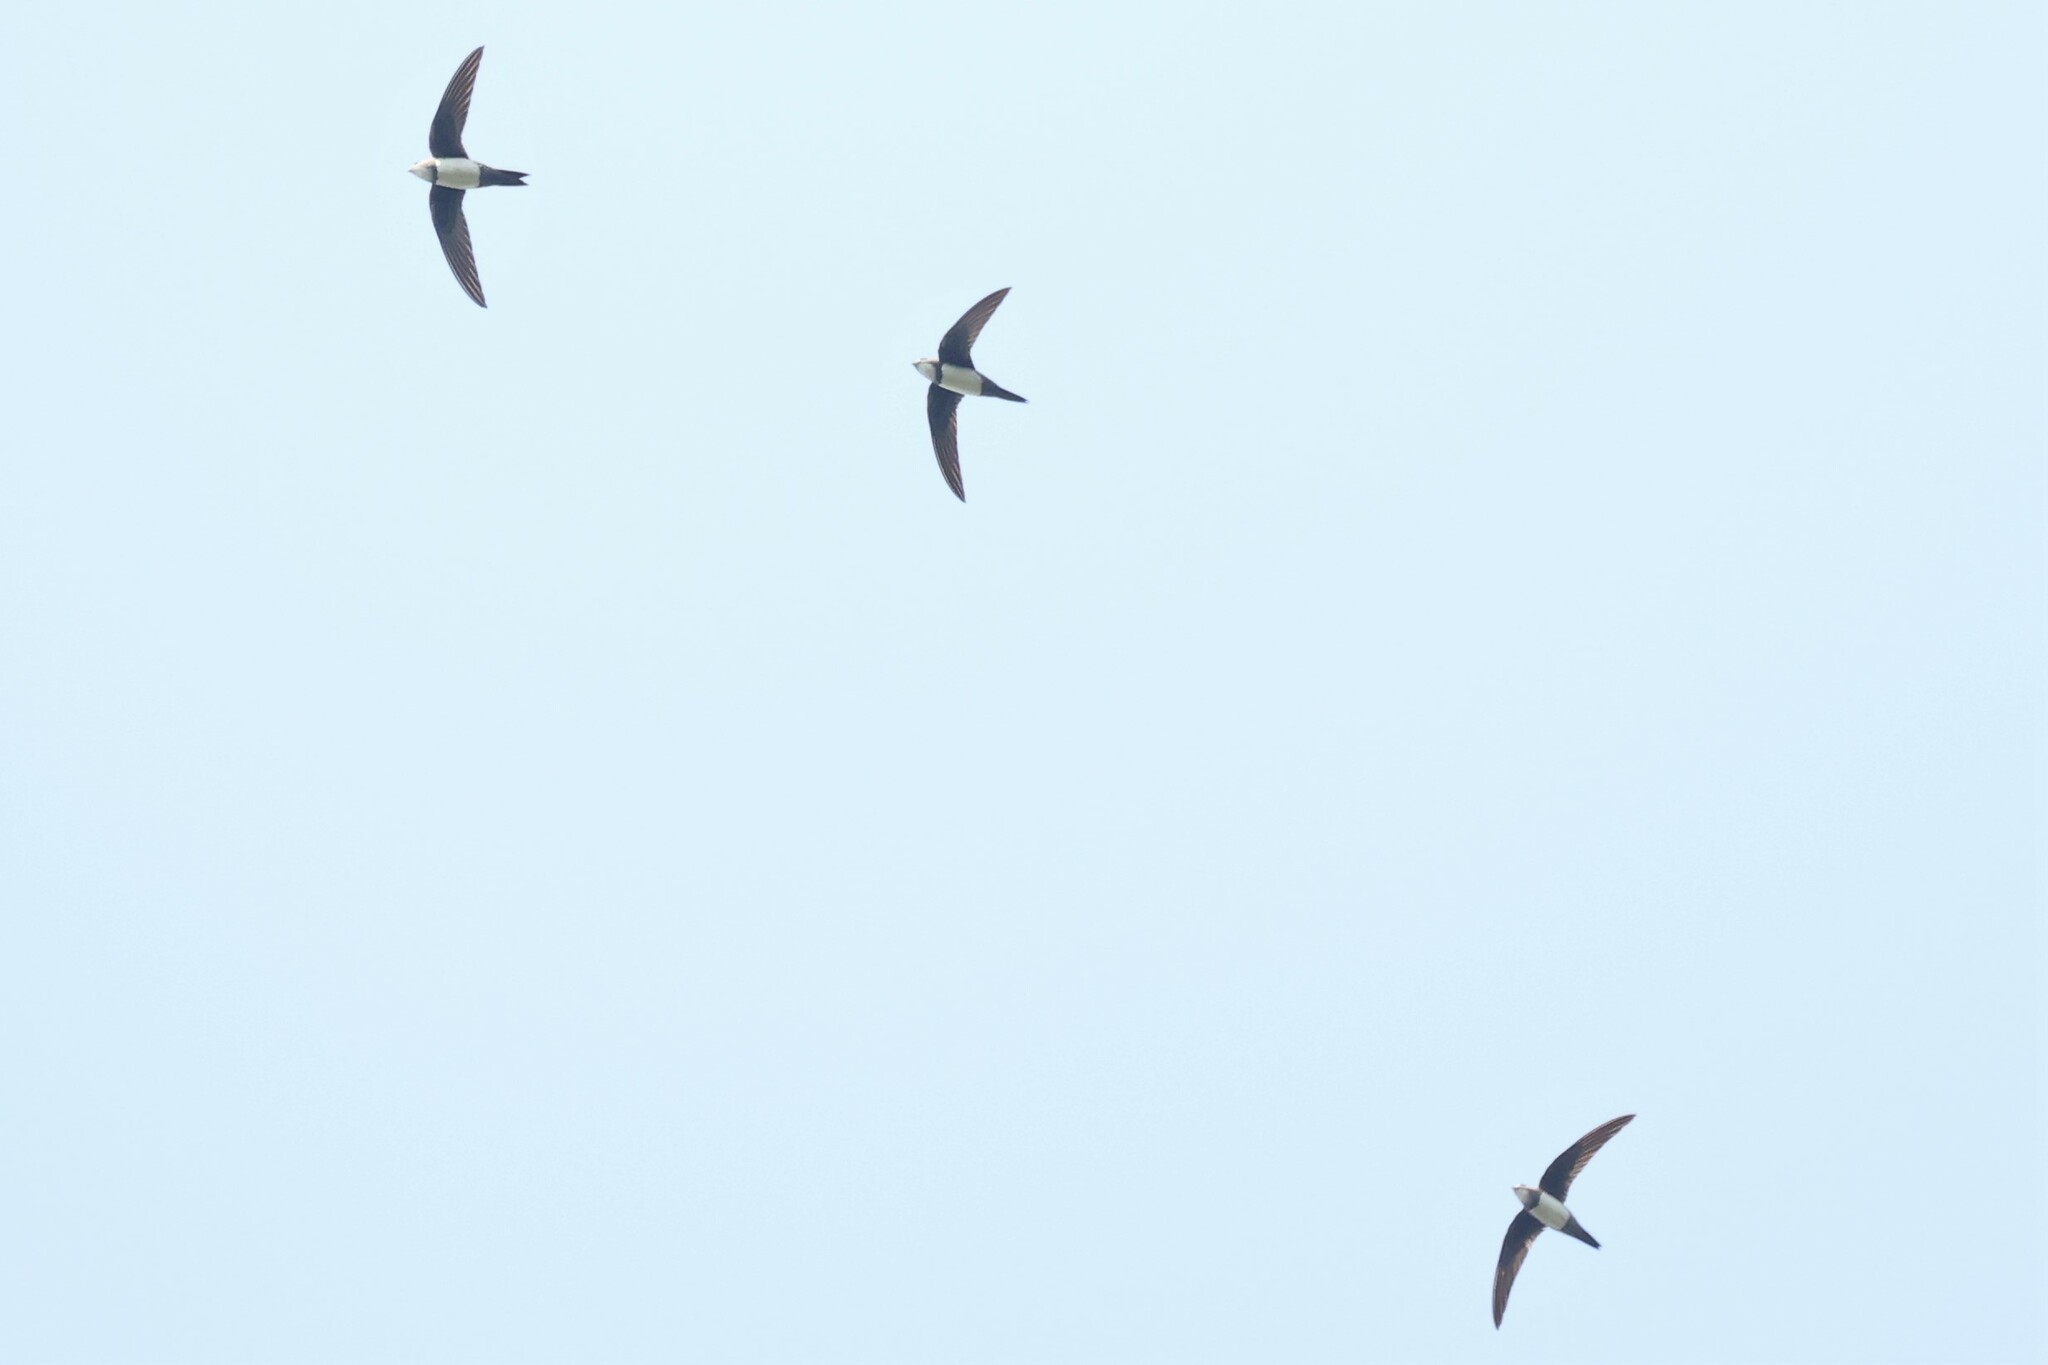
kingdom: Animalia
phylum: Chordata
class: Aves
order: Apodiformes
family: Apodidae
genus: Tachymarptis
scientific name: Tachymarptis melba
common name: Alpine swift
